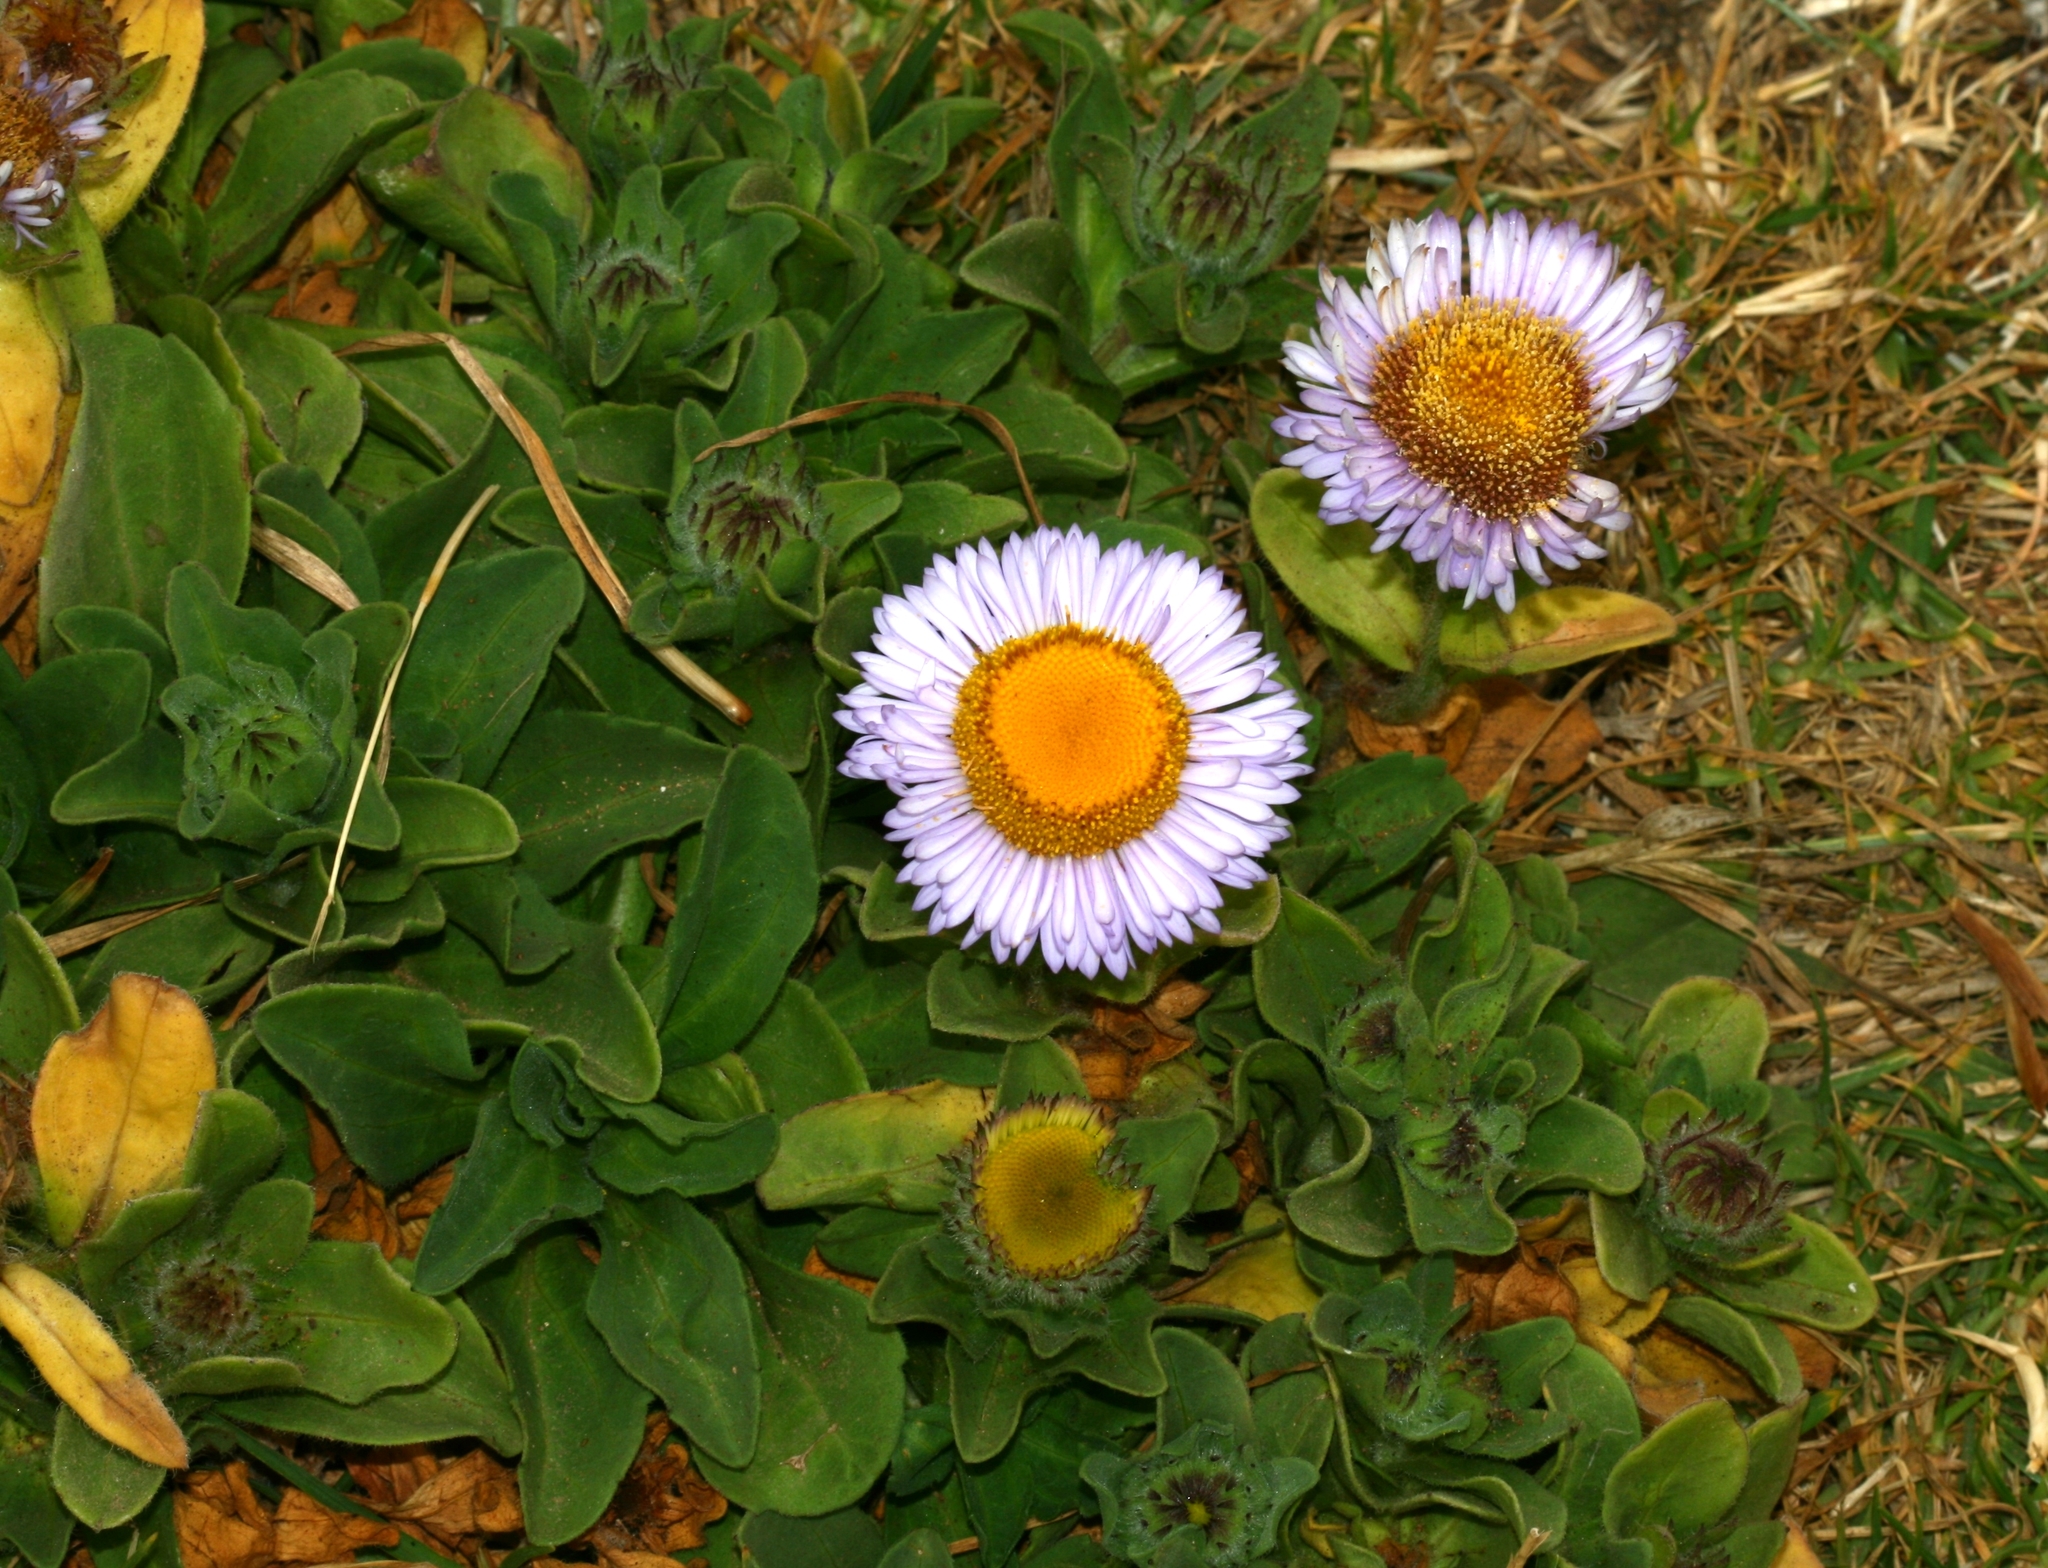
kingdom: Plantae
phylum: Tracheophyta
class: Magnoliopsida
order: Asterales
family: Asteraceae
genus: Erigeron
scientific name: Erigeron glaucus
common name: Seaside daisy
